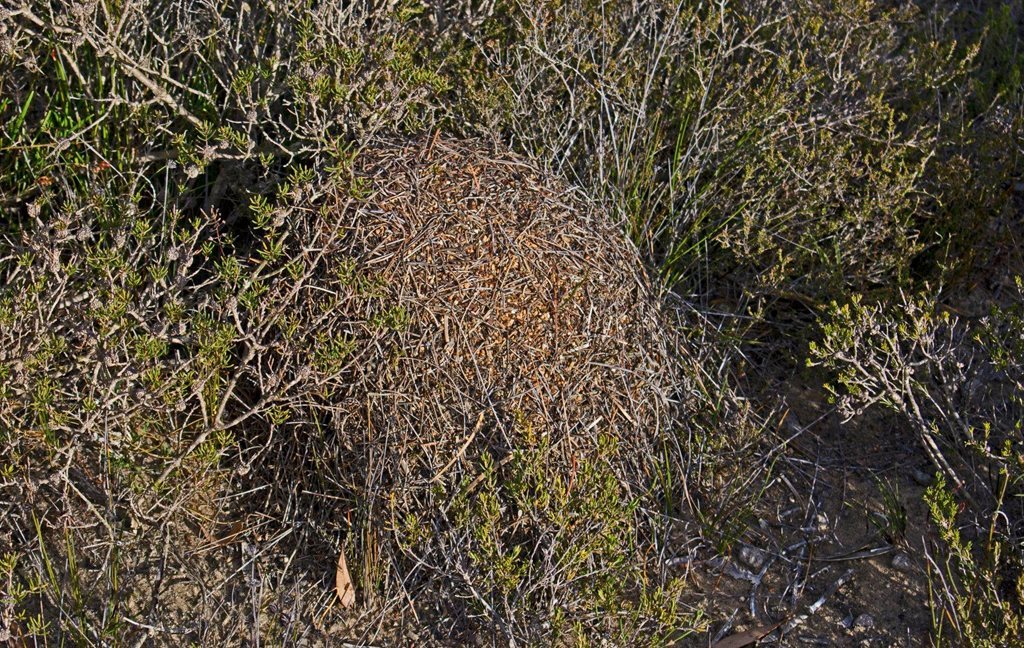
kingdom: Animalia
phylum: Arthropoda
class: Insecta
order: Hymenoptera
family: Formicidae
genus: Iridomyrmex
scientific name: Iridomyrmex conifer
